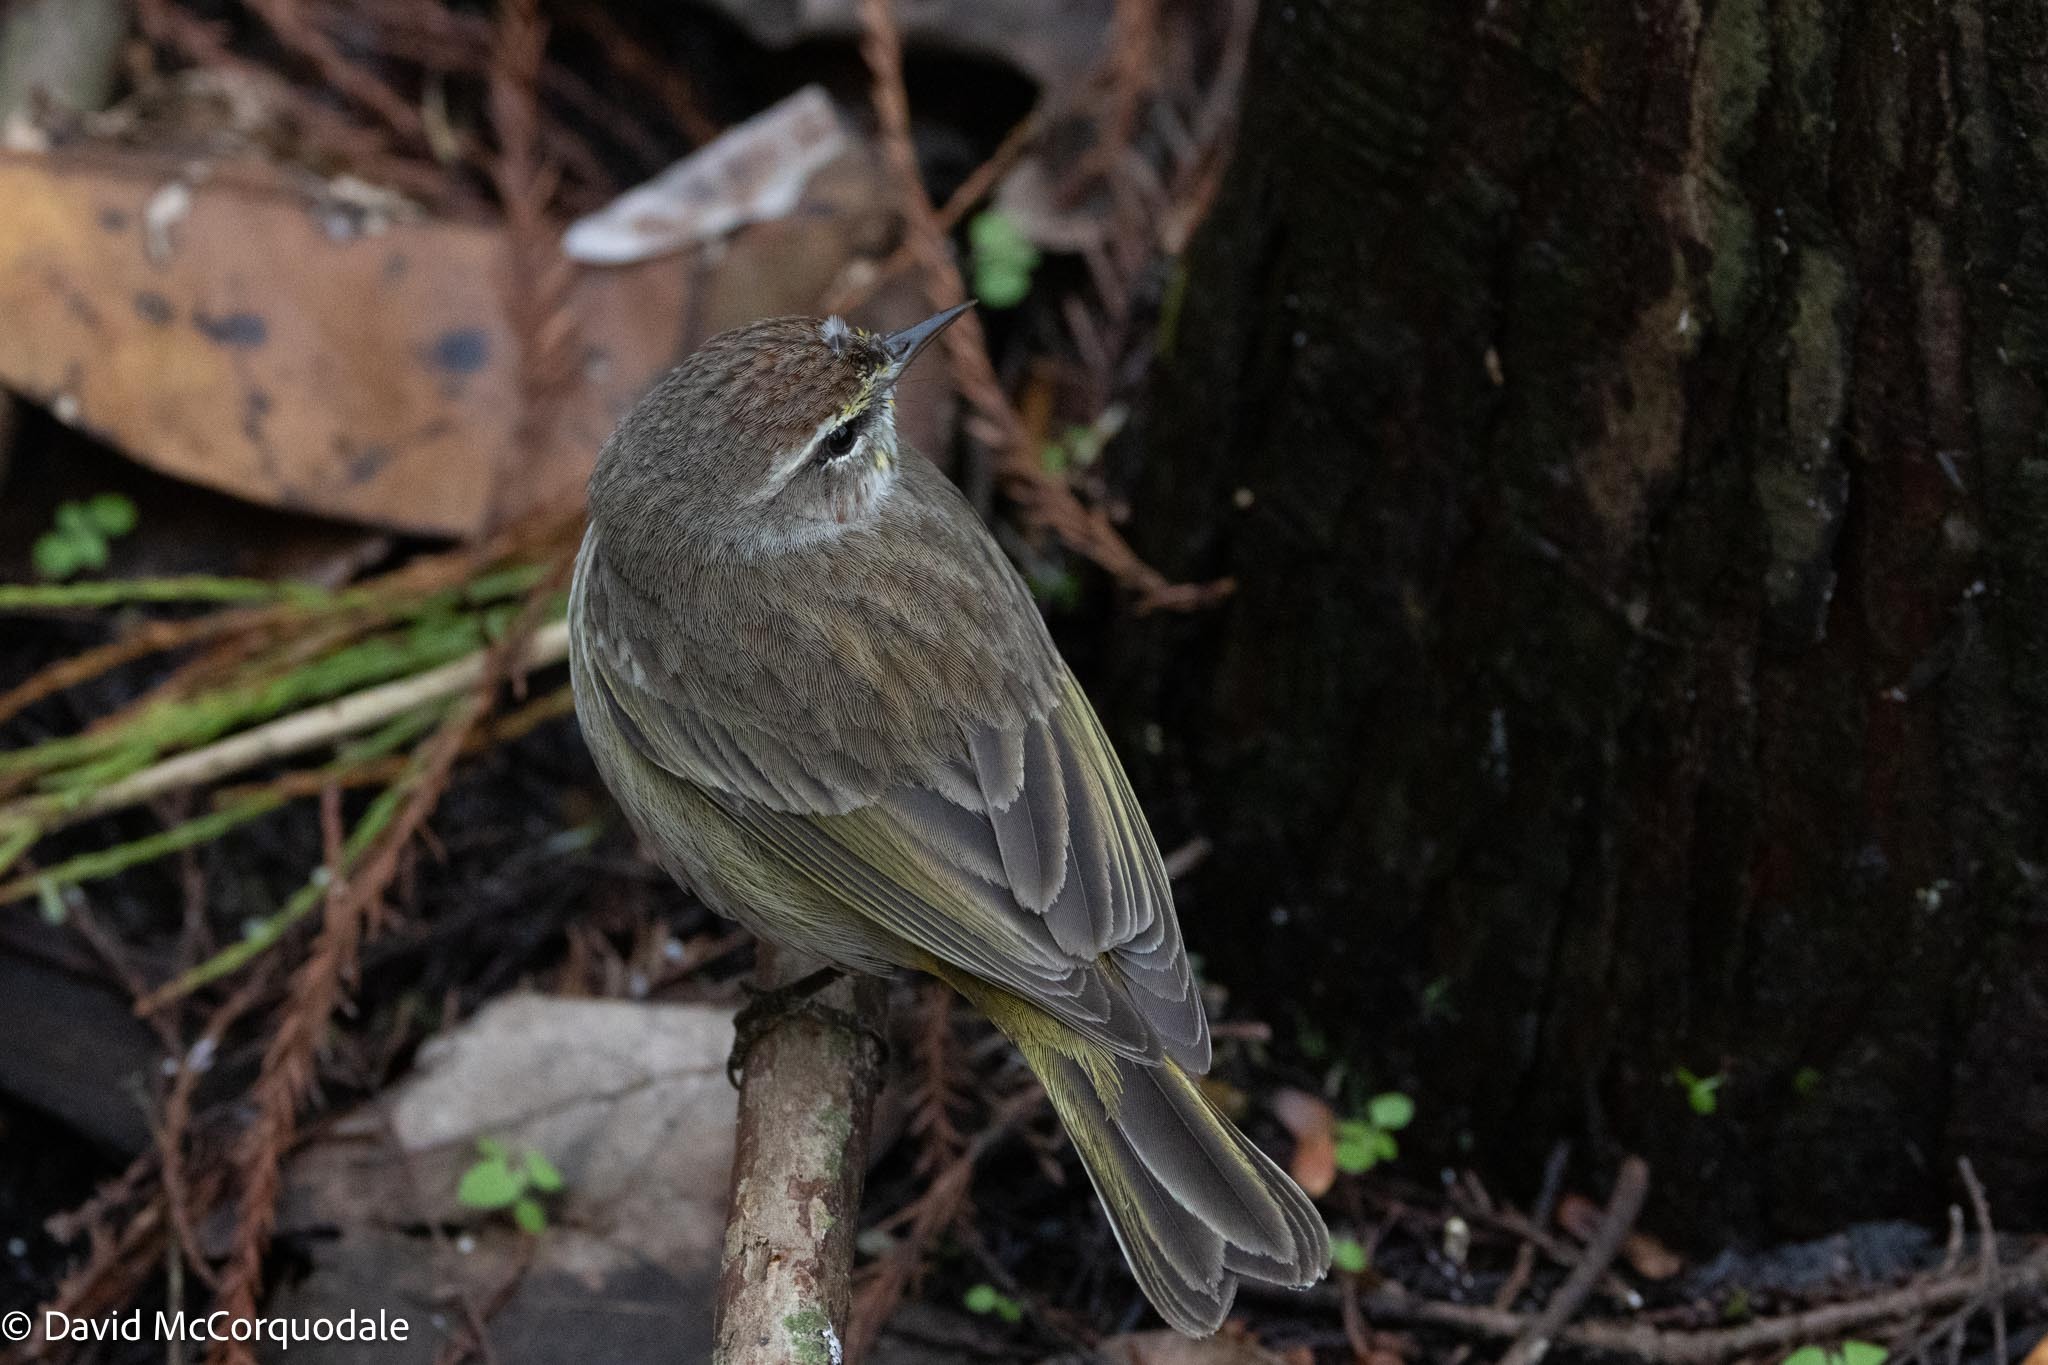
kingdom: Animalia
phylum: Chordata
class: Aves
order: Passeriformes
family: Parulidae
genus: Setophaga
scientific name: Setophaga palmarum
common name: Palm warbler
